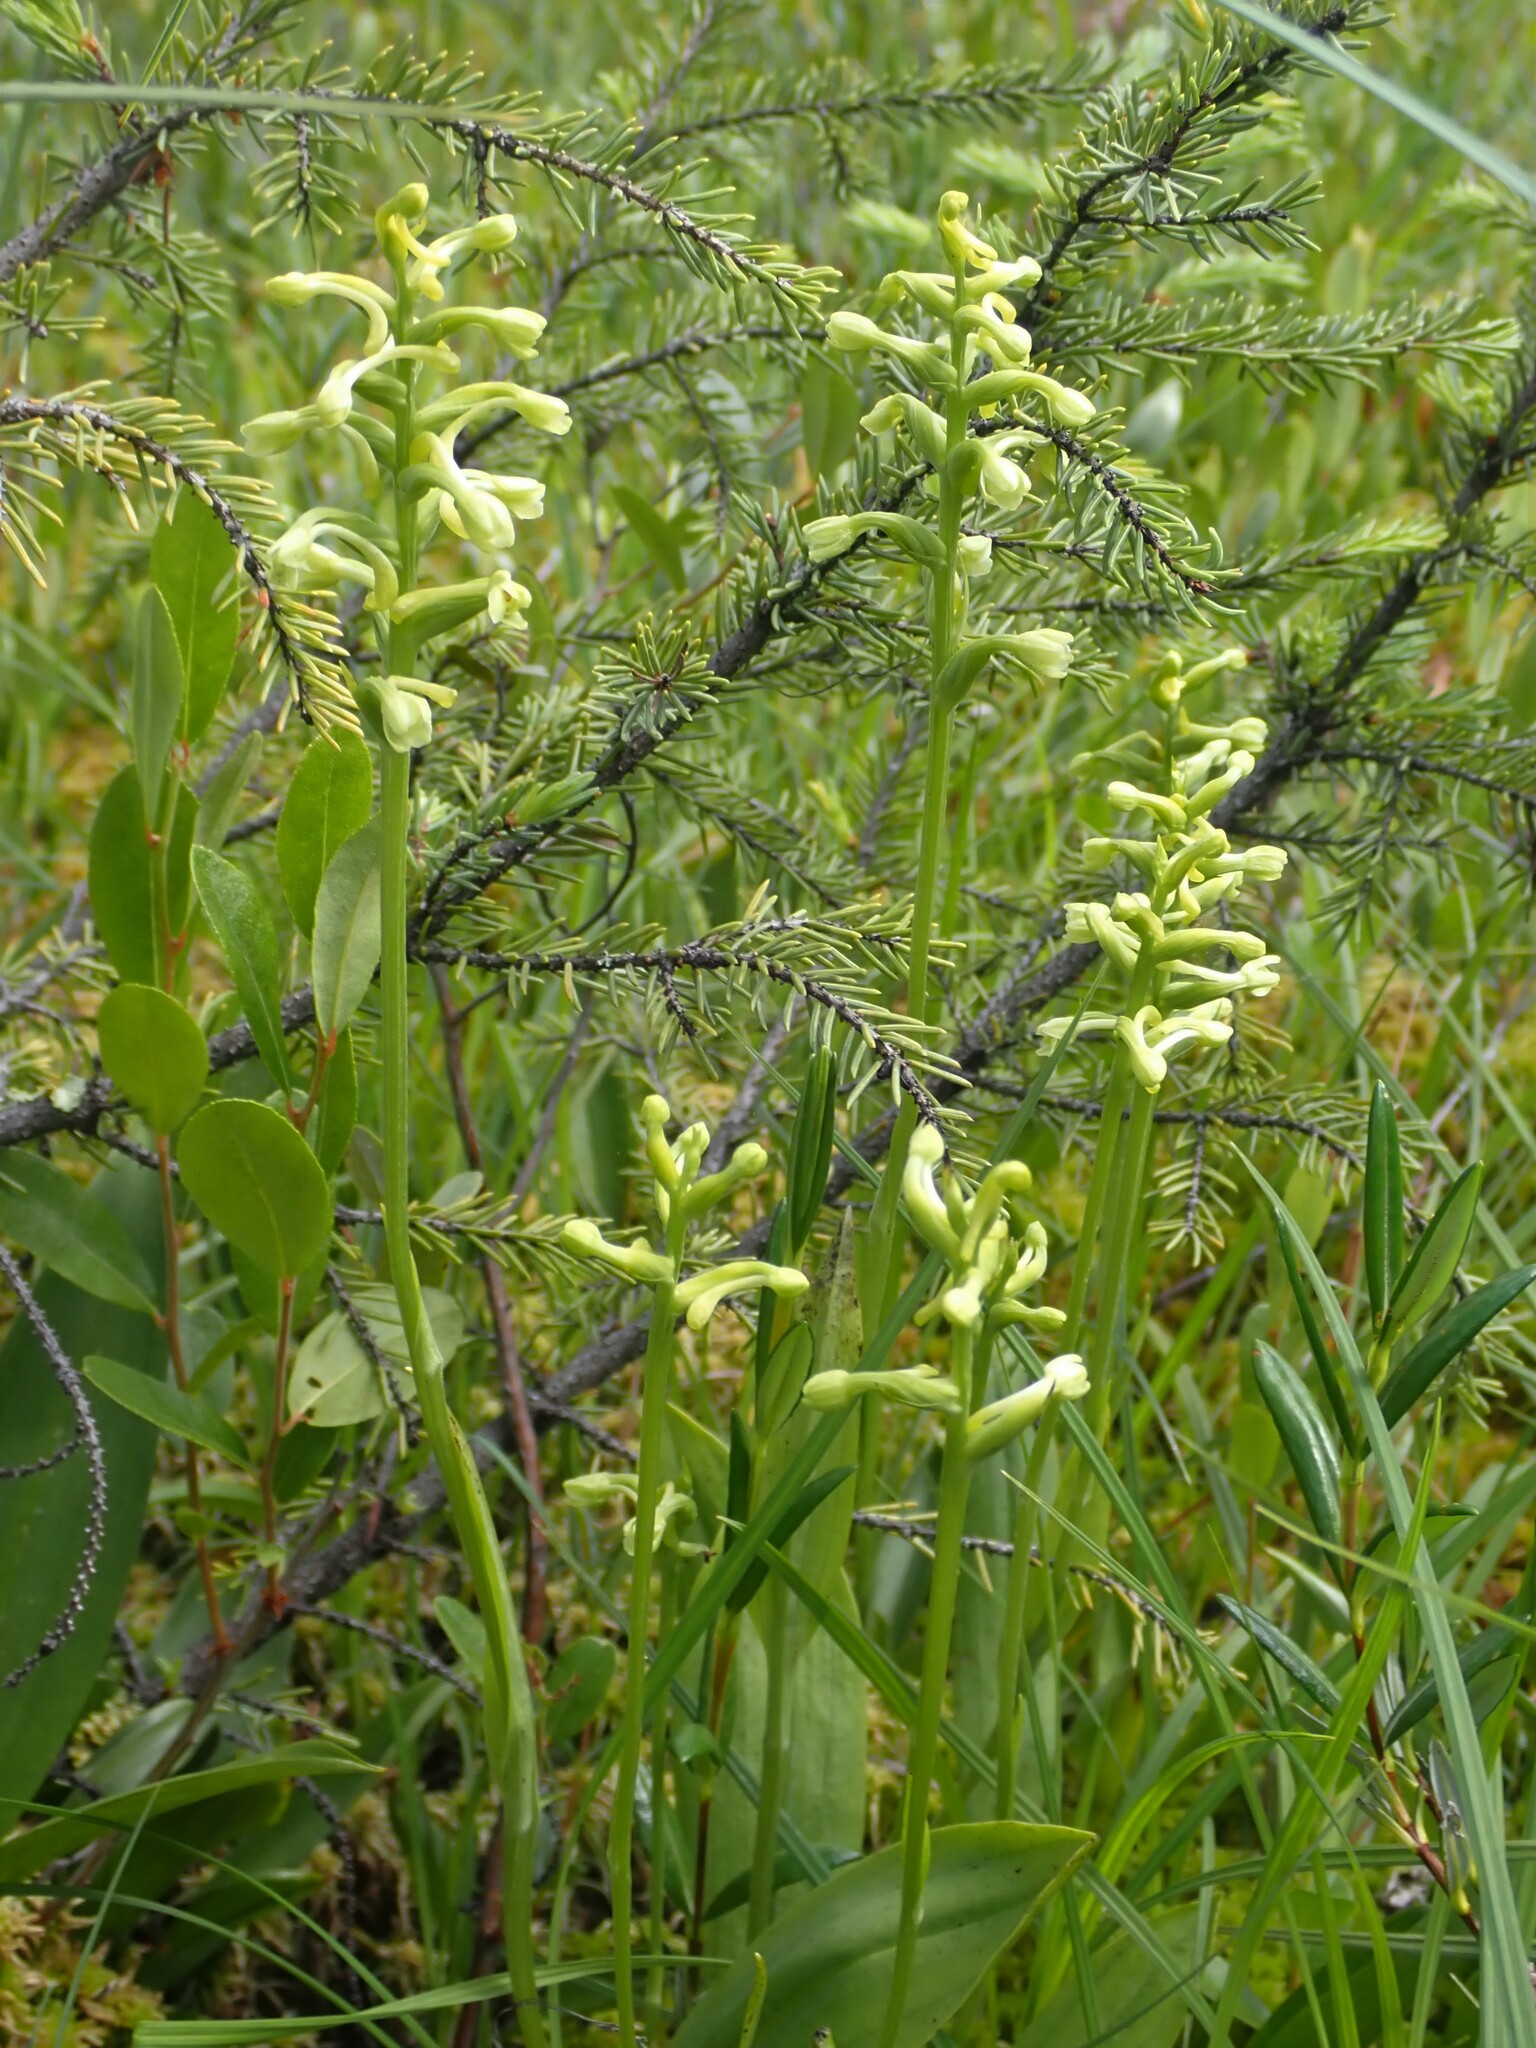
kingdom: Plantae
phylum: Tracheophyta
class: Liliopsida
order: Asparagales
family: Orchidaceae
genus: Platanthera
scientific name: Platanthera clavellata
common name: Club-spur orchid
